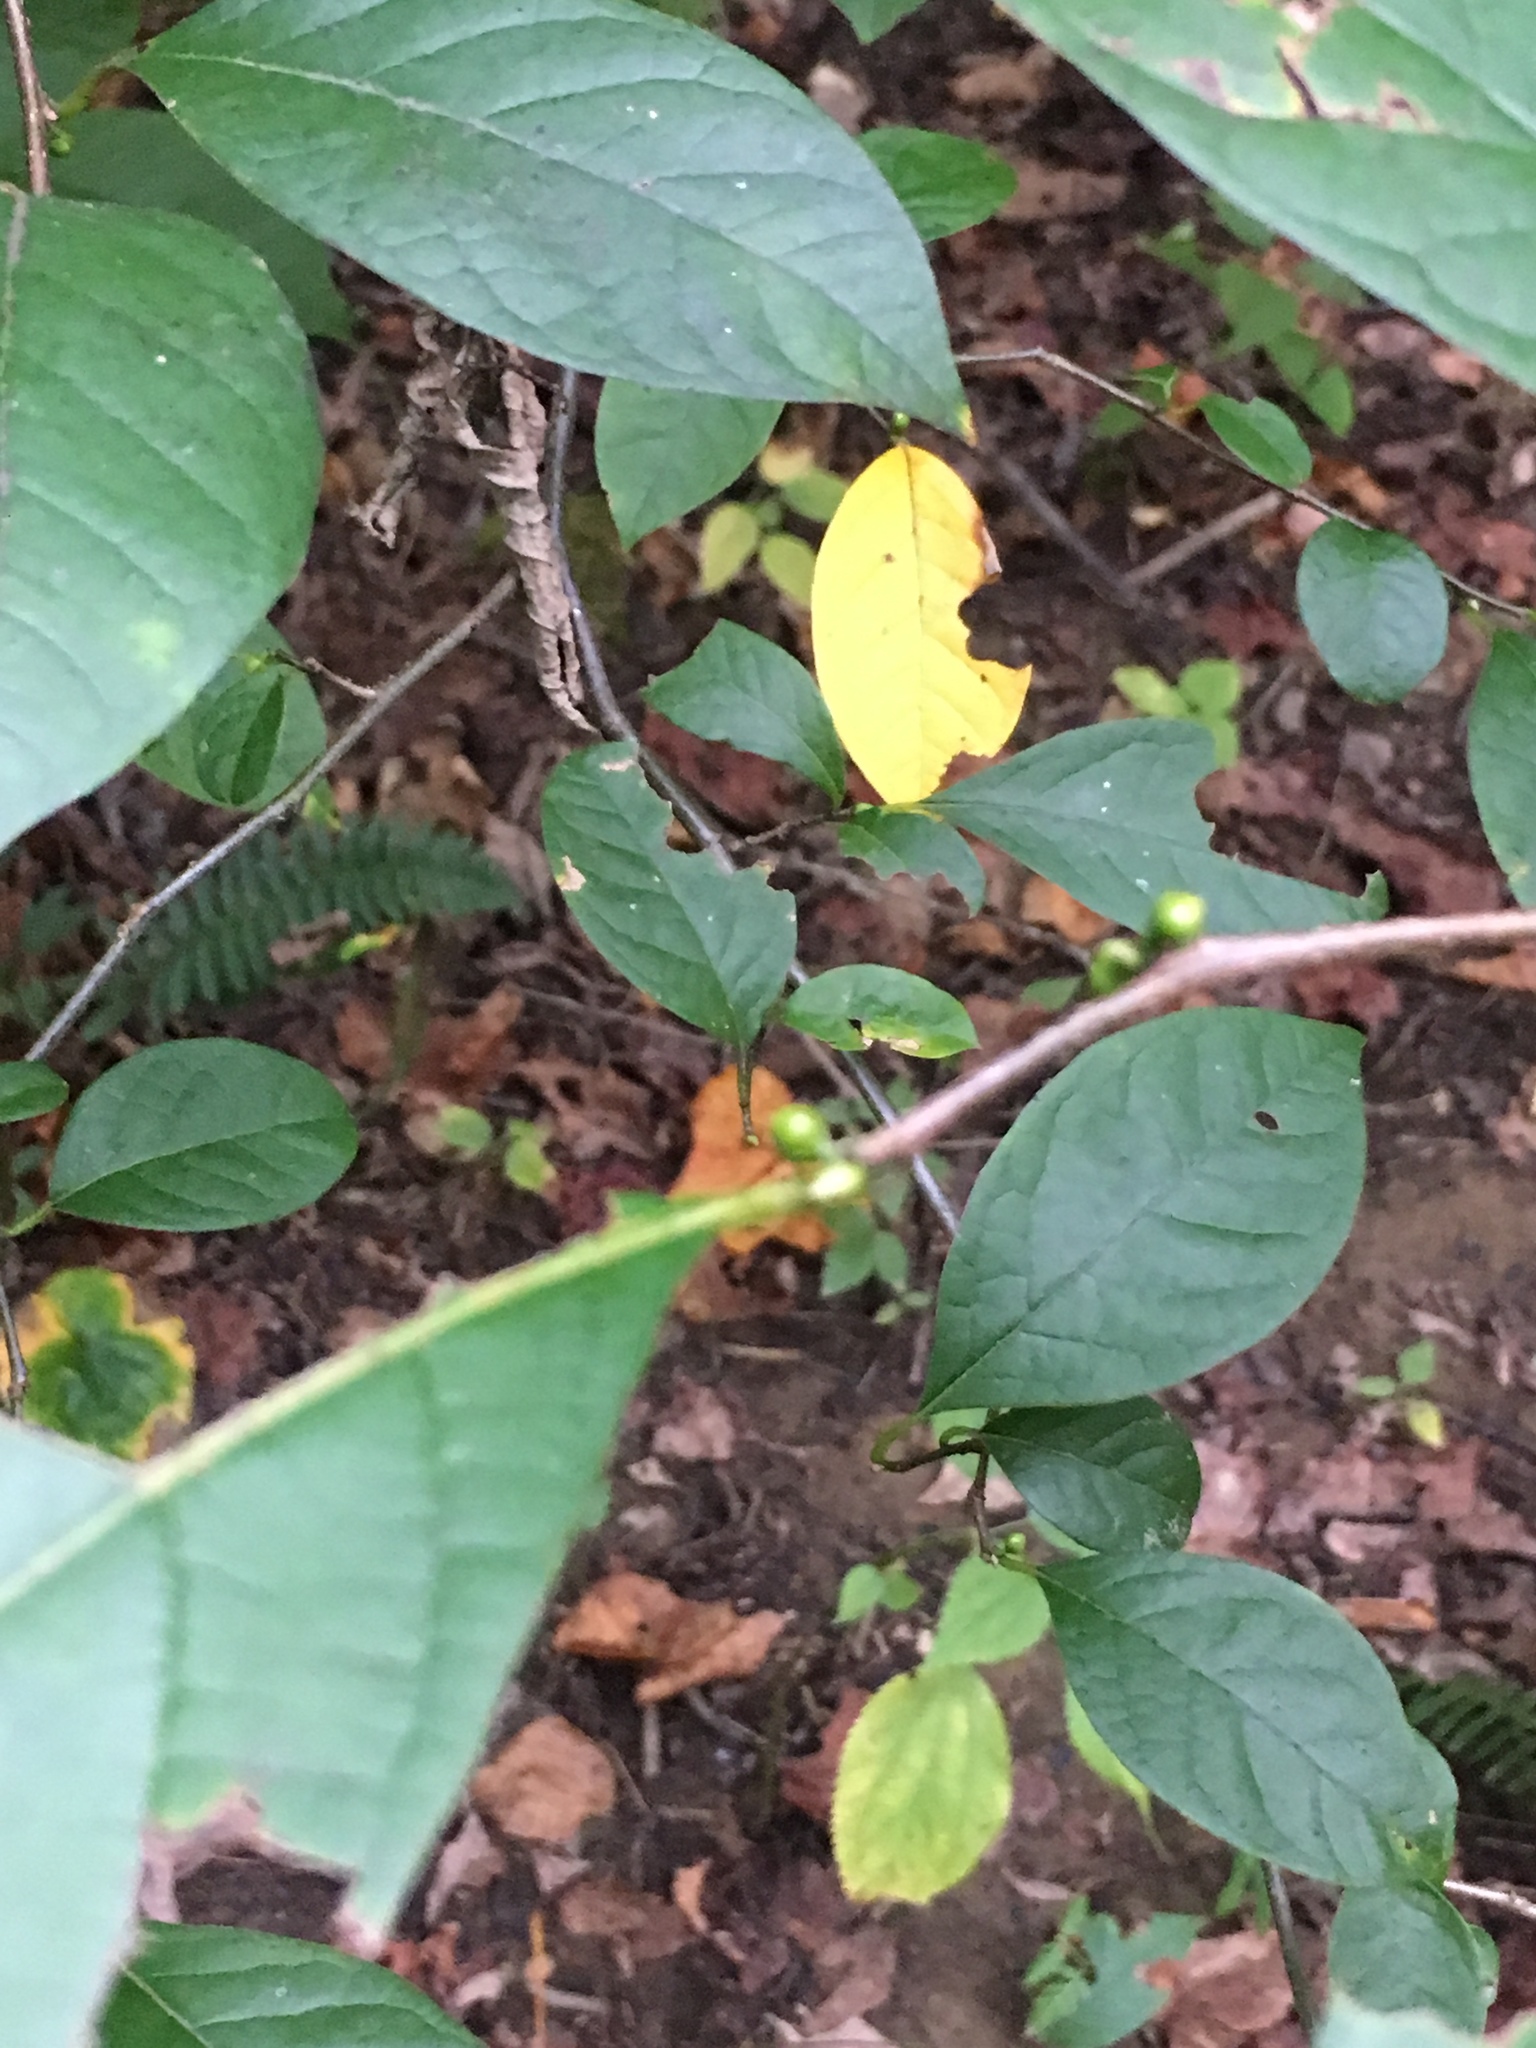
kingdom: Plantae
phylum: Tracheophyta
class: Magnoliopsida
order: Laurales
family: Lauraceae
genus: Lindera
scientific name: Lindera benzoin
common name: Spicebush
